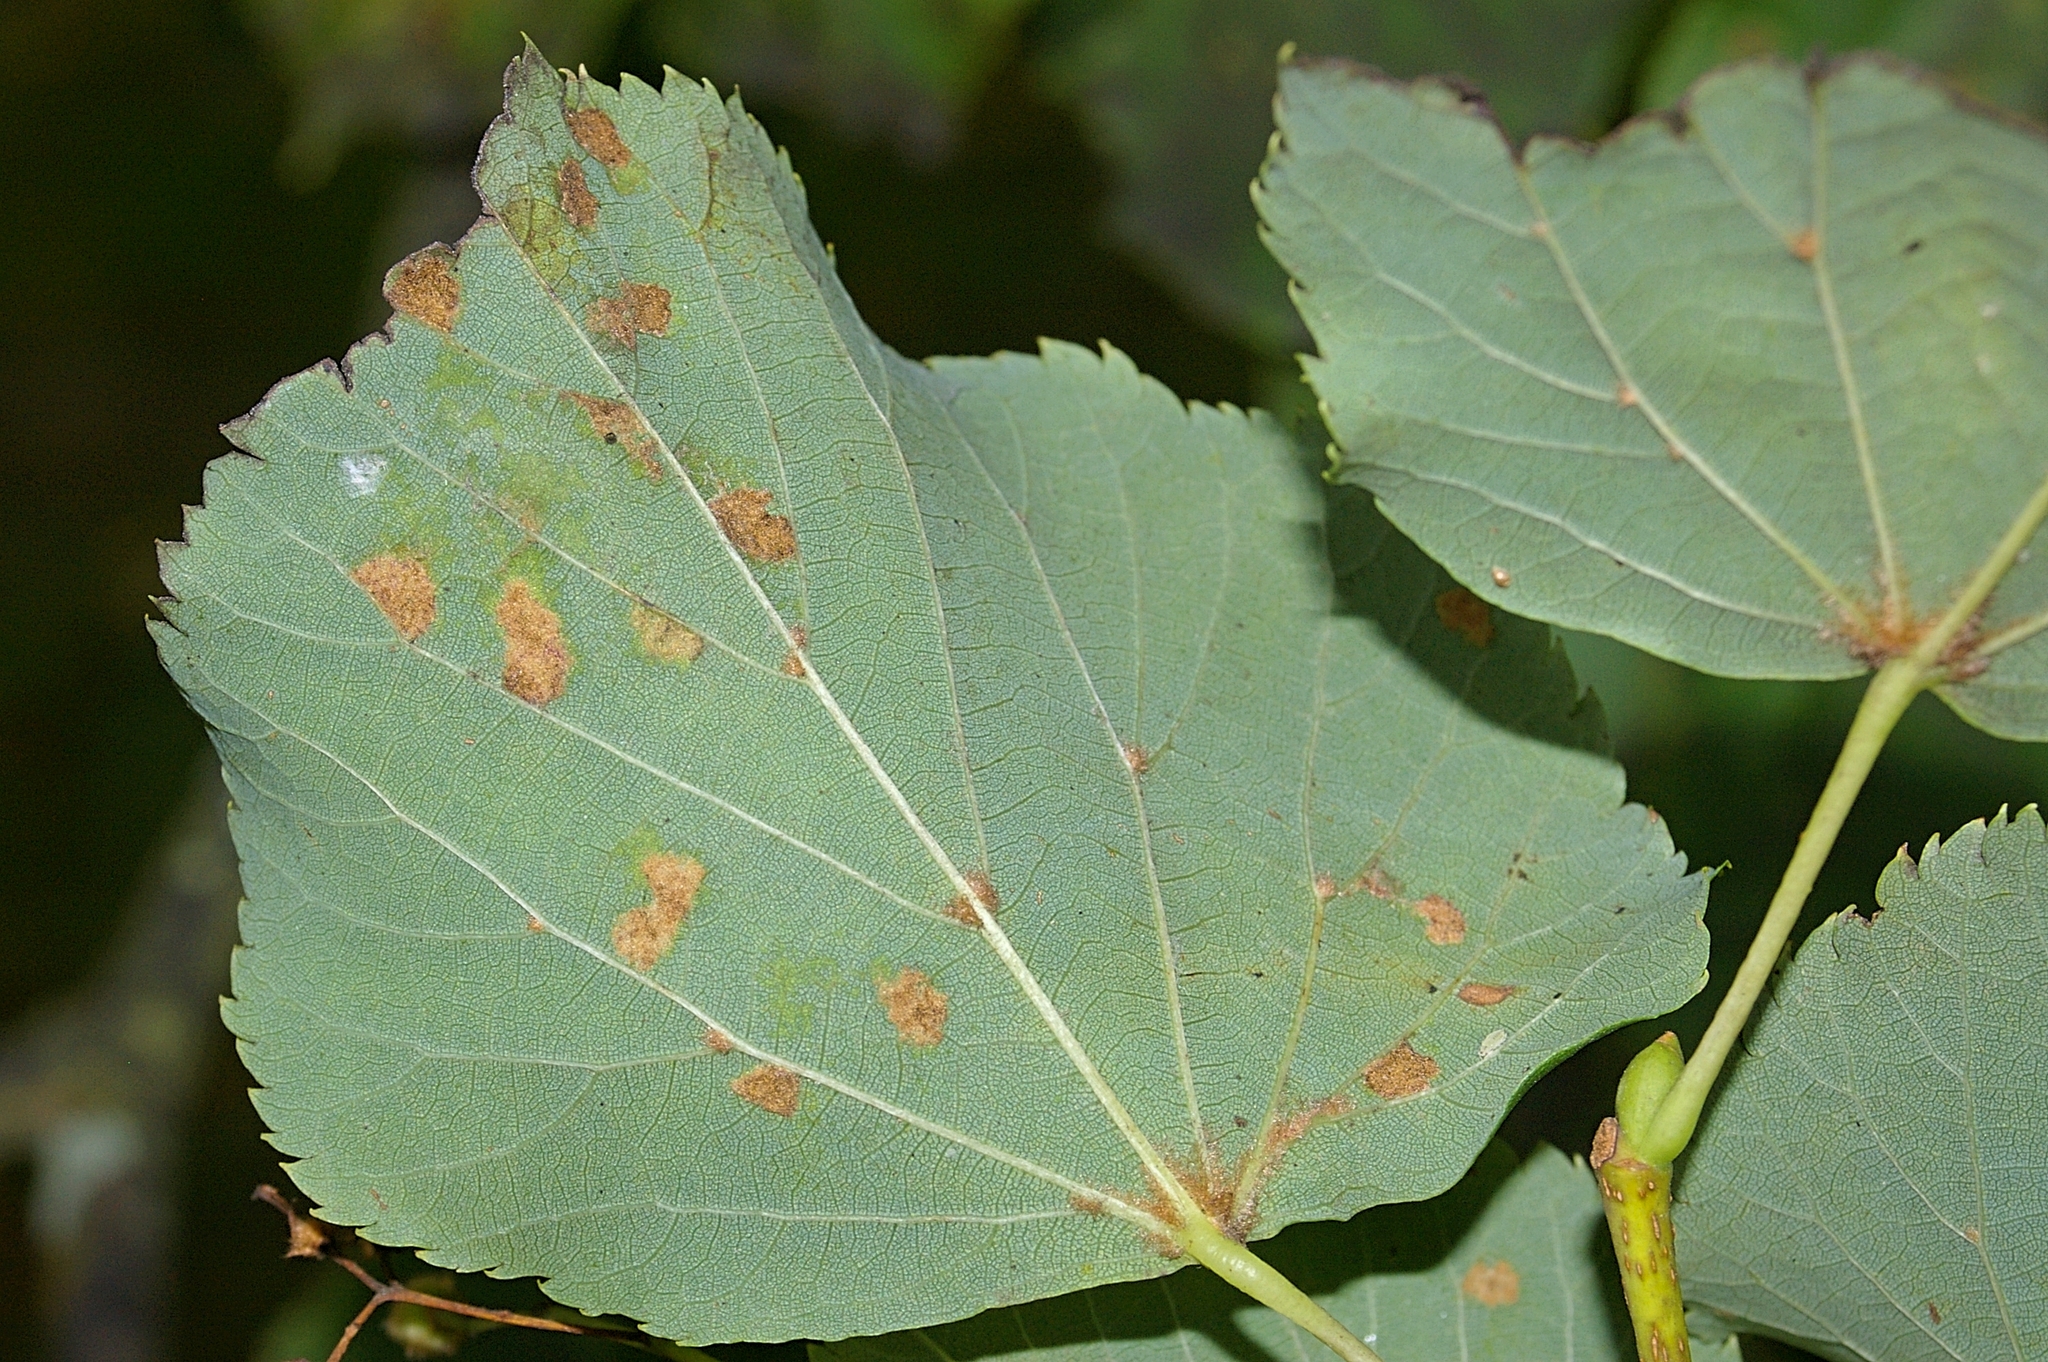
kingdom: Animalia
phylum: Arthropoda
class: Arachnida
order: Trombidiformes
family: Eriophyidae
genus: Eriophyes
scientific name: Eriophyes leiosoma
